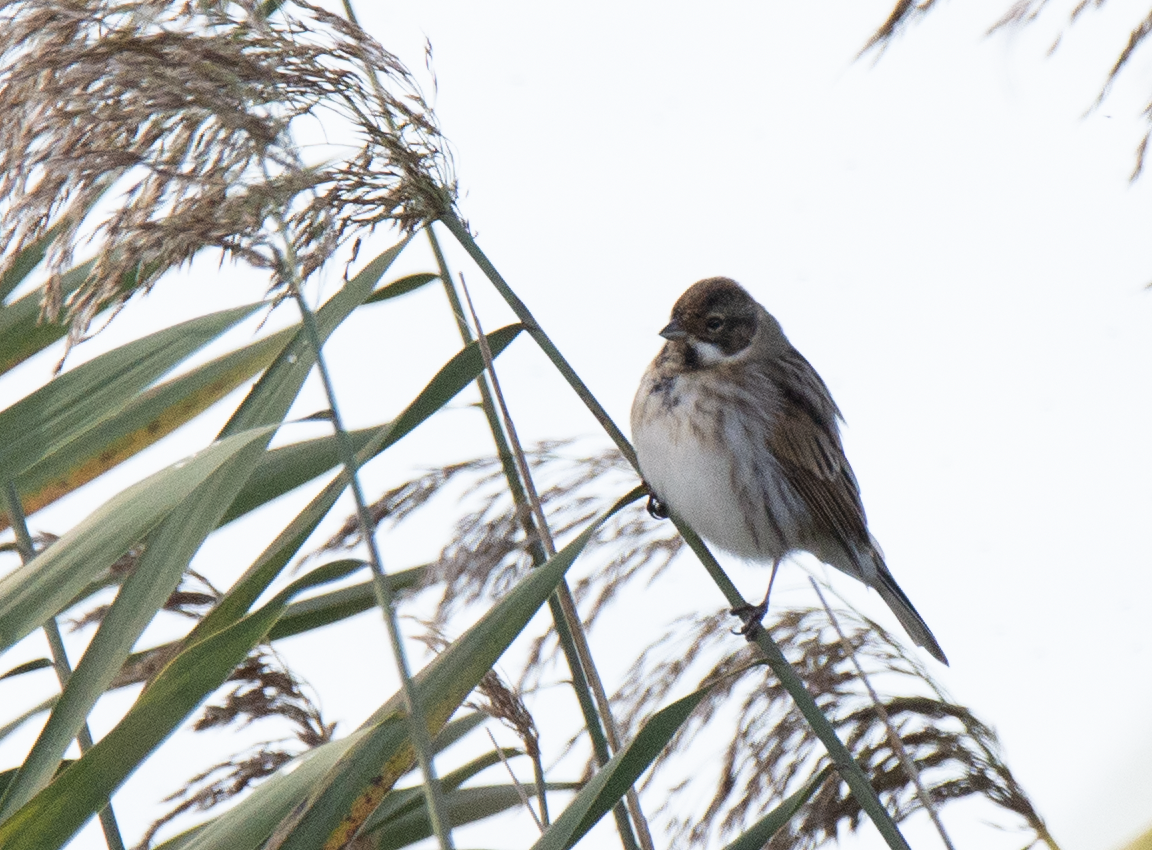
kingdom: Animalia
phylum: Chordata
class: Aves
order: Passeriformes
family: Emberizidae
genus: Emberiza
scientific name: Emberiza schoeniclus
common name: Reed bunting
